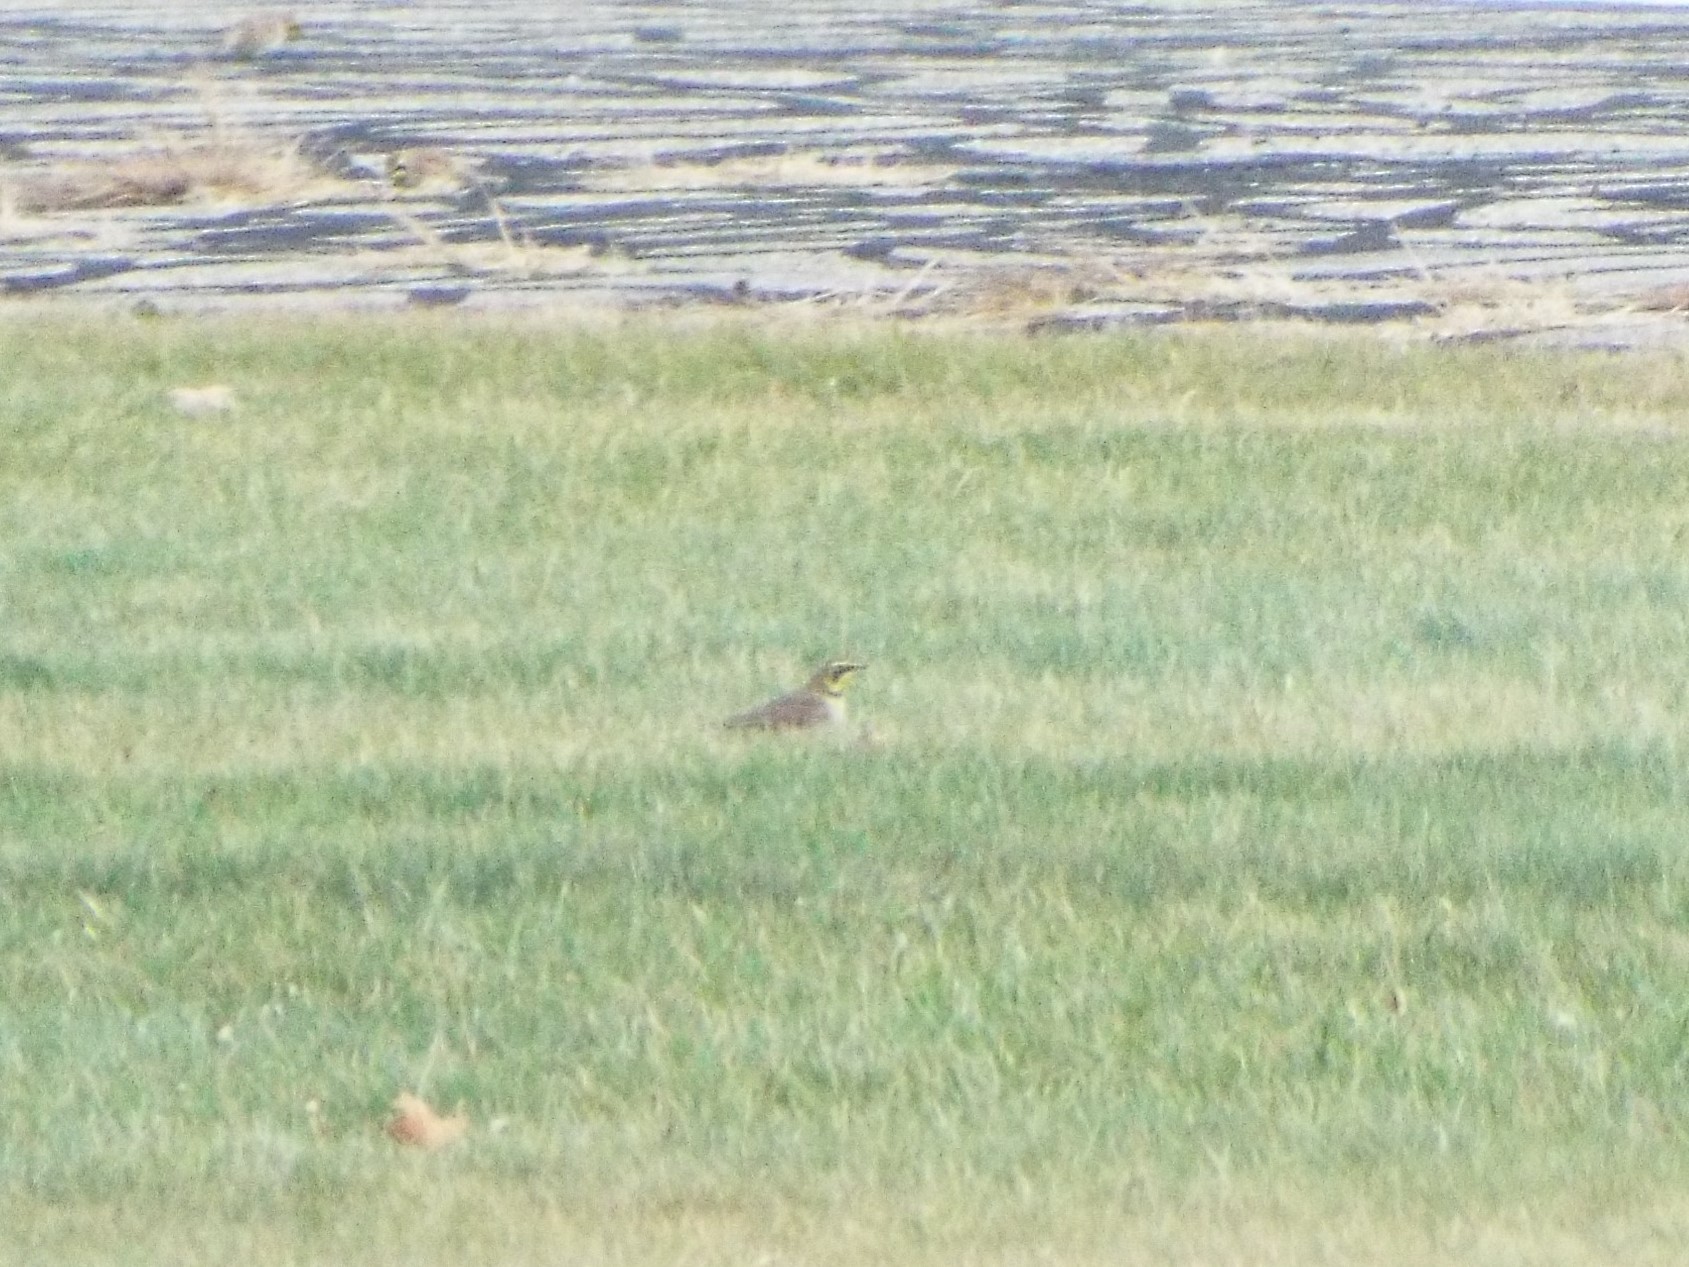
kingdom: Animalia
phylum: Chordata
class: Aves
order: Passeriformes
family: Alaudidae
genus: Eremophila
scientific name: Eremophila alpestris
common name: Horned lark
